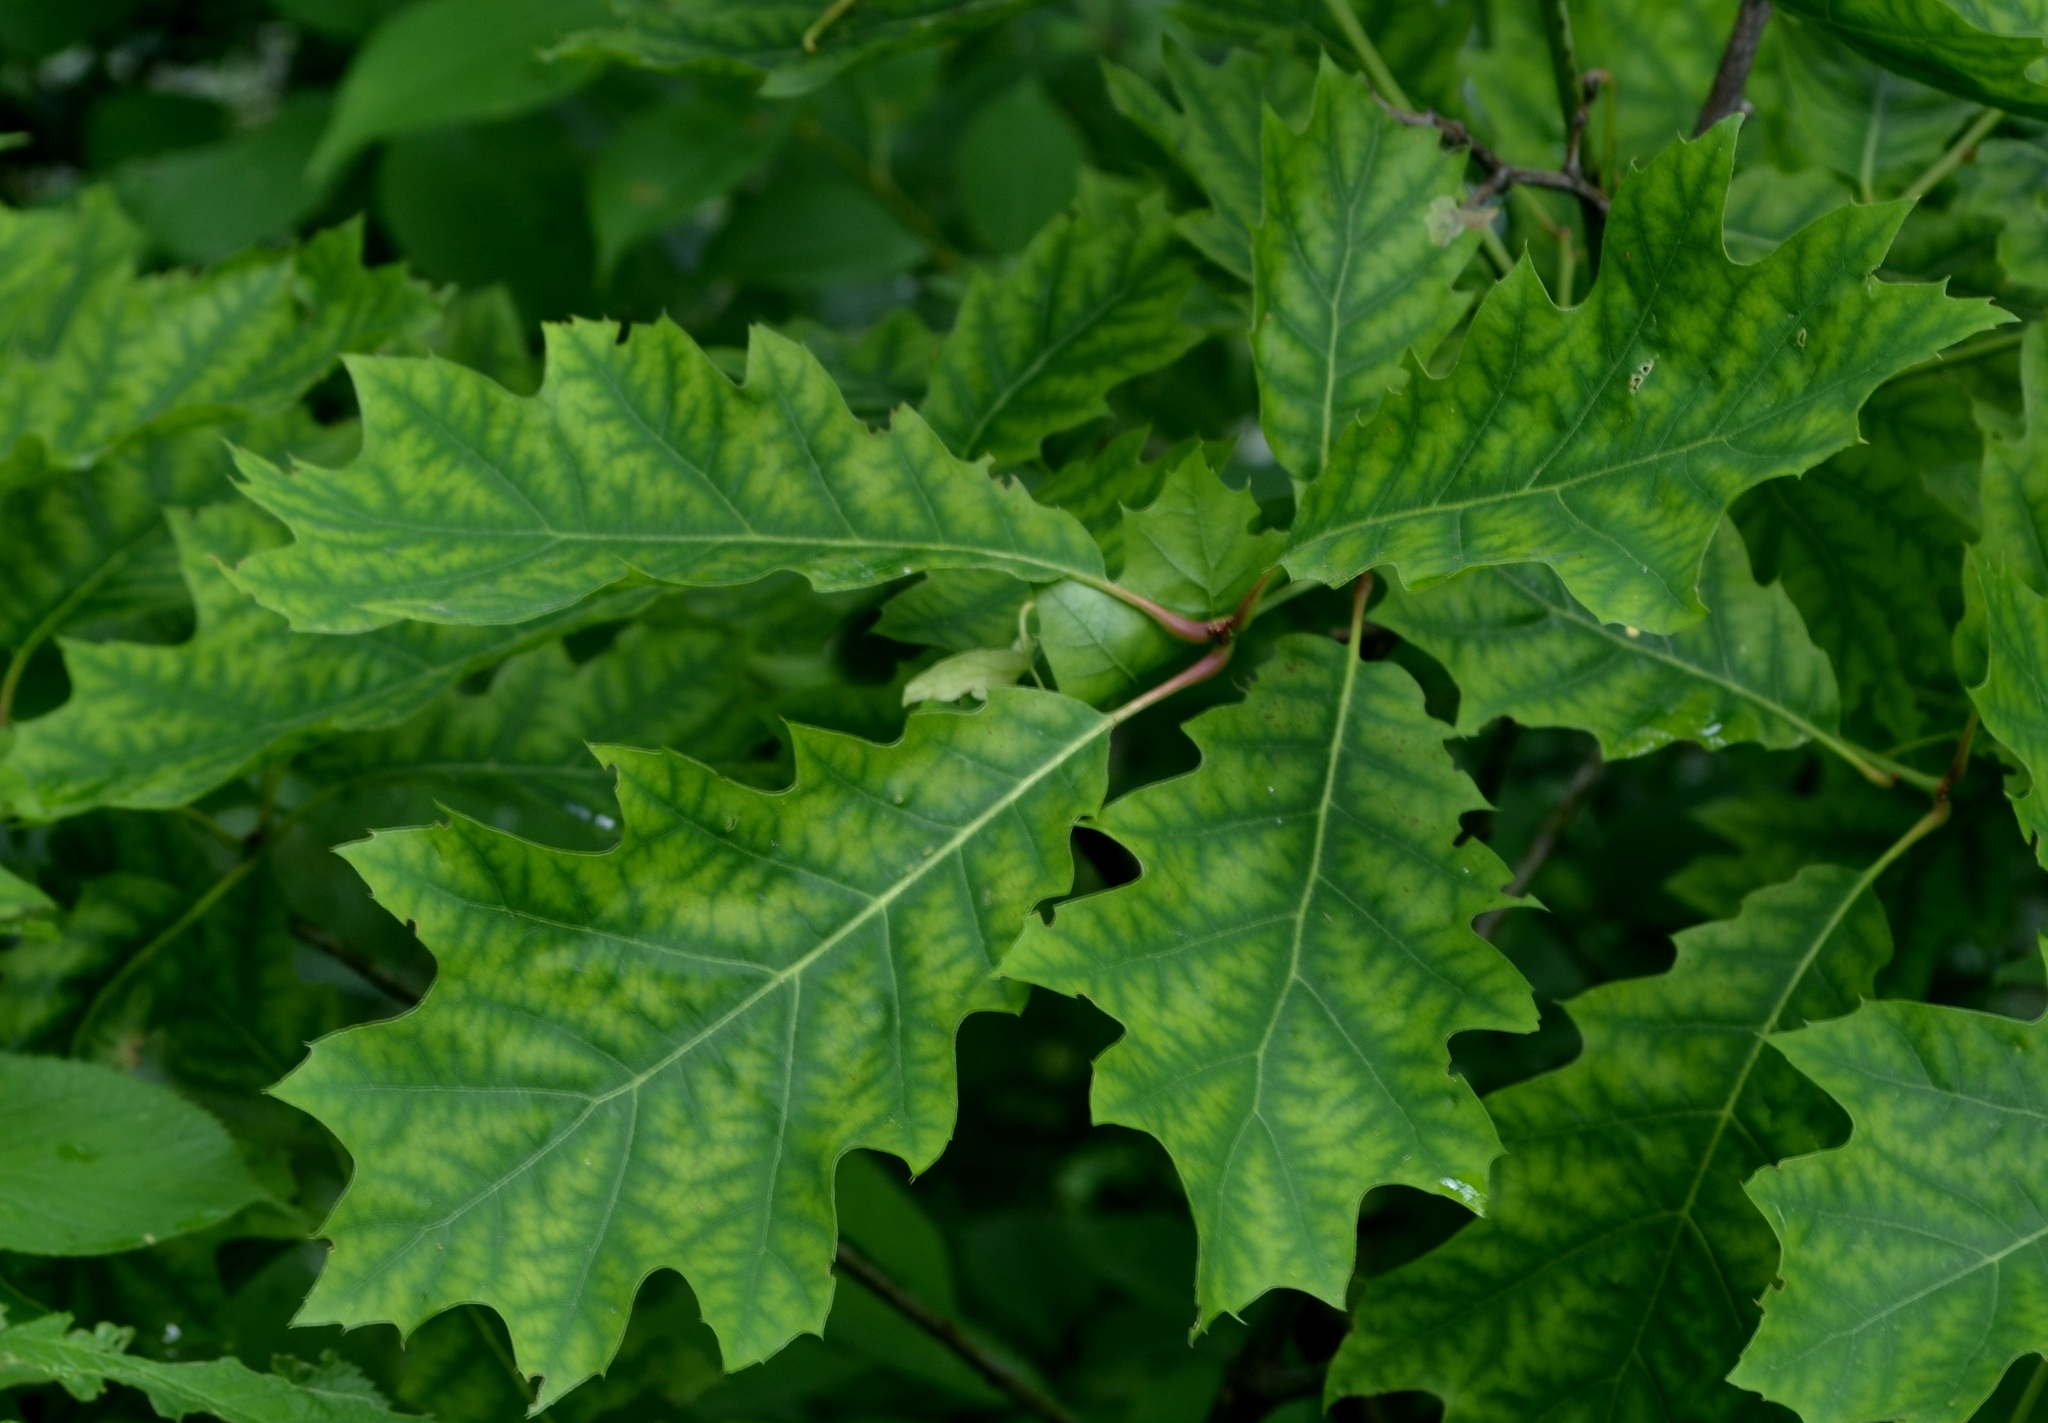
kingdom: Plantae
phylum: Tracheophyta
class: Magnoliopsida
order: Fagales
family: Fagaceae
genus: Quercus
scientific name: Quercus rubra
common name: Red oak
